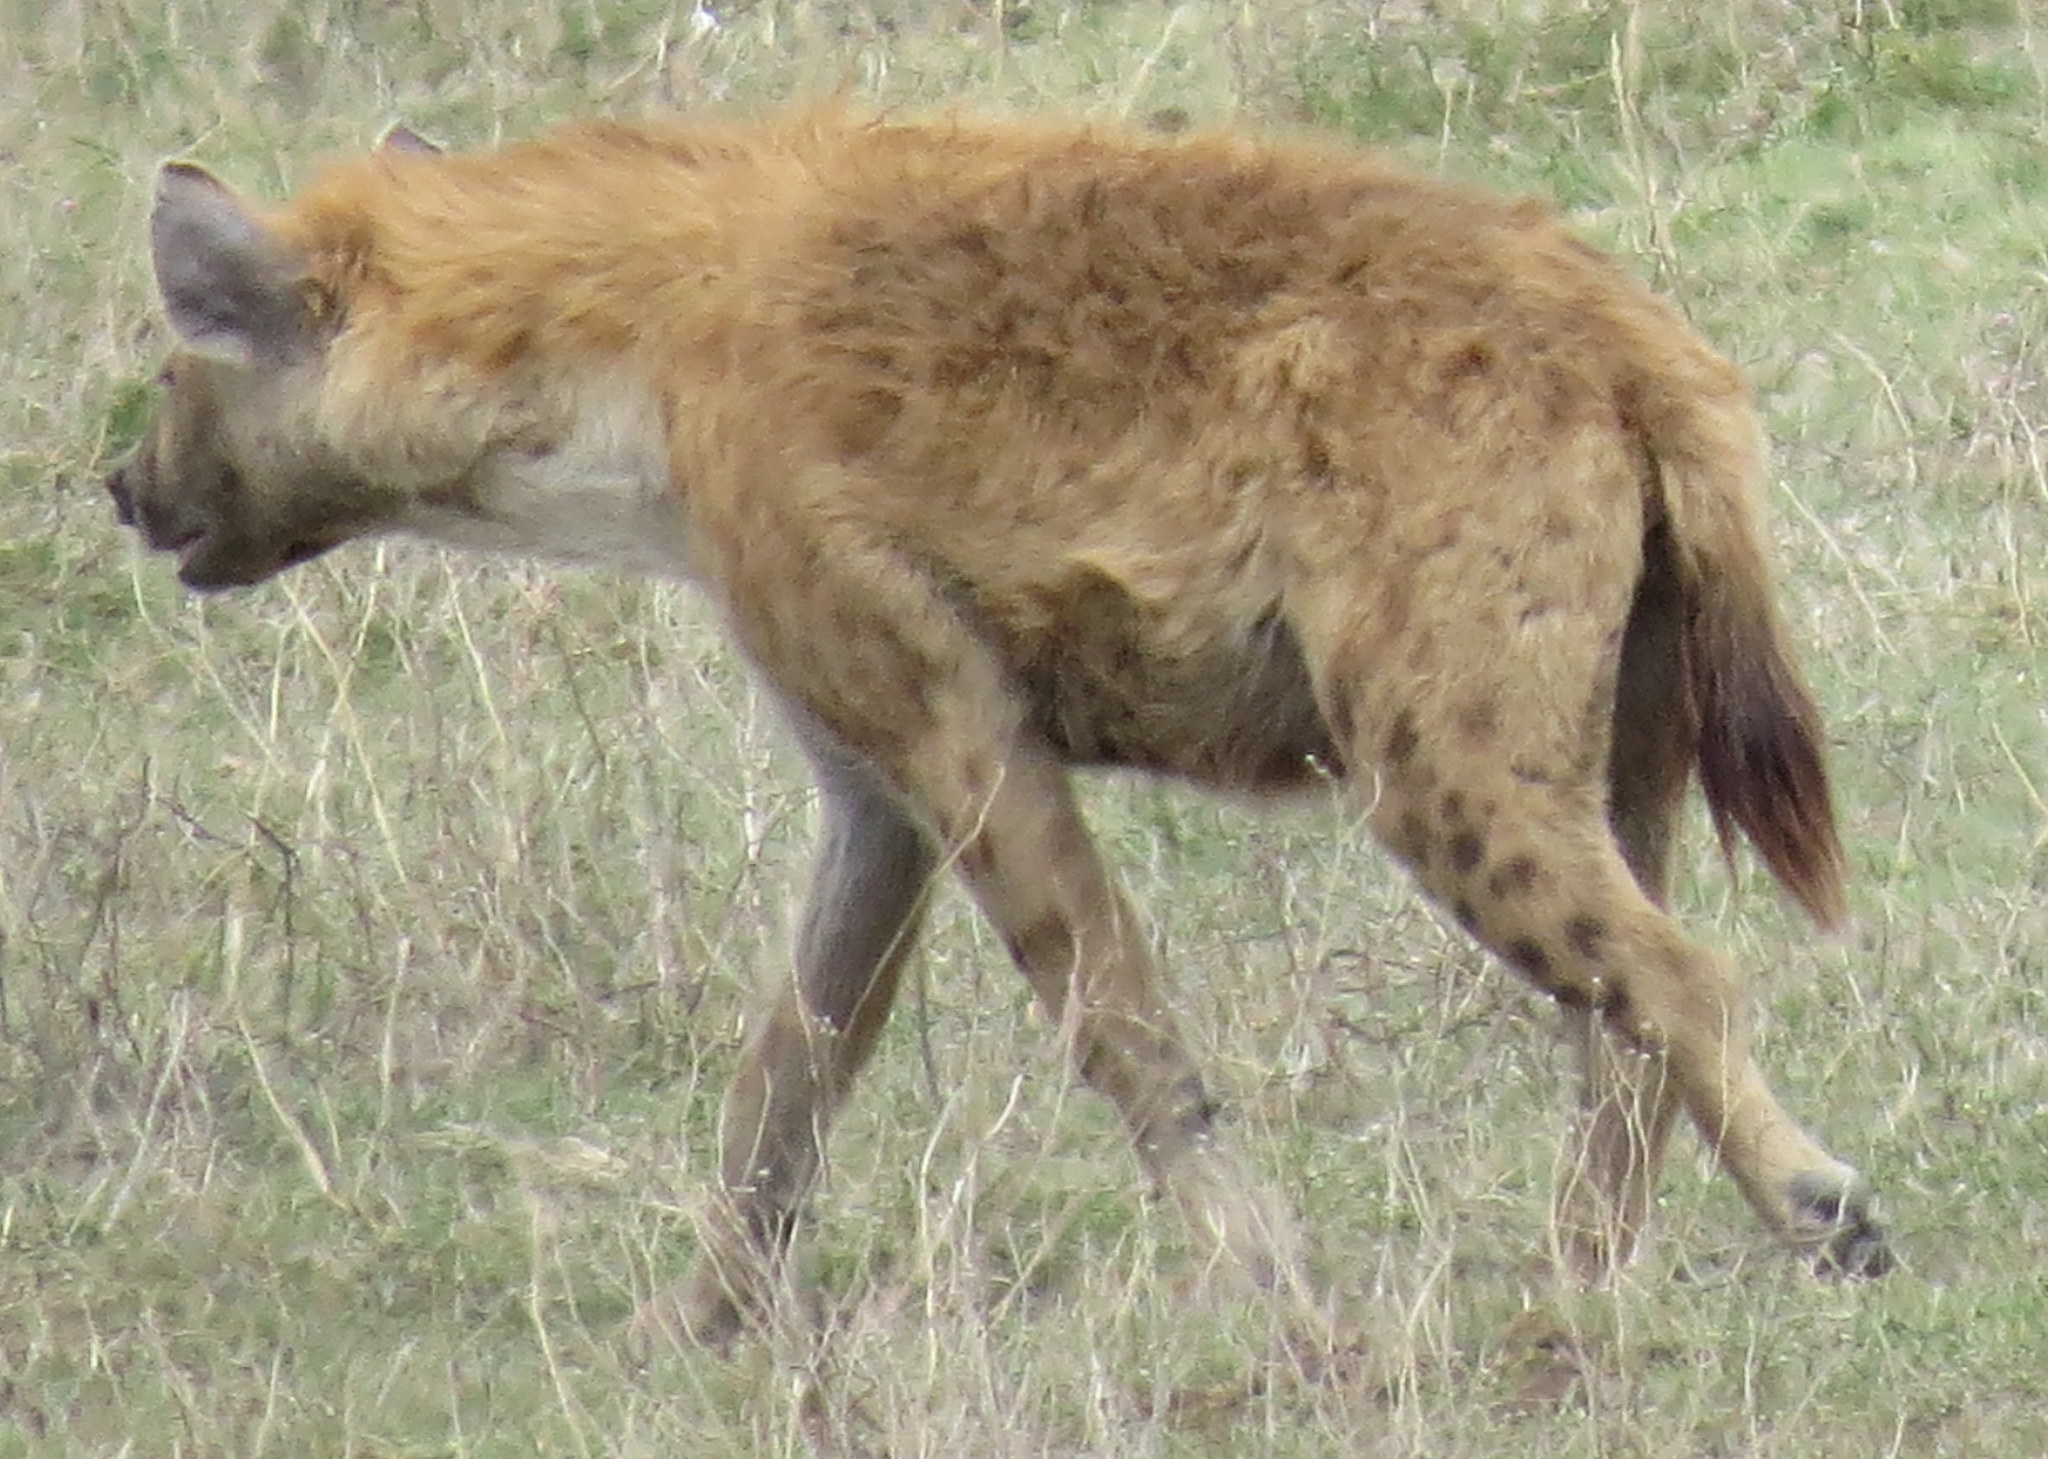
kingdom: Animalia
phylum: Chordata
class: Mammalia
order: Carnivora
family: Hyaenidae
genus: Crocuta
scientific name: Crocuta crocuta
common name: Spotted hyaena
